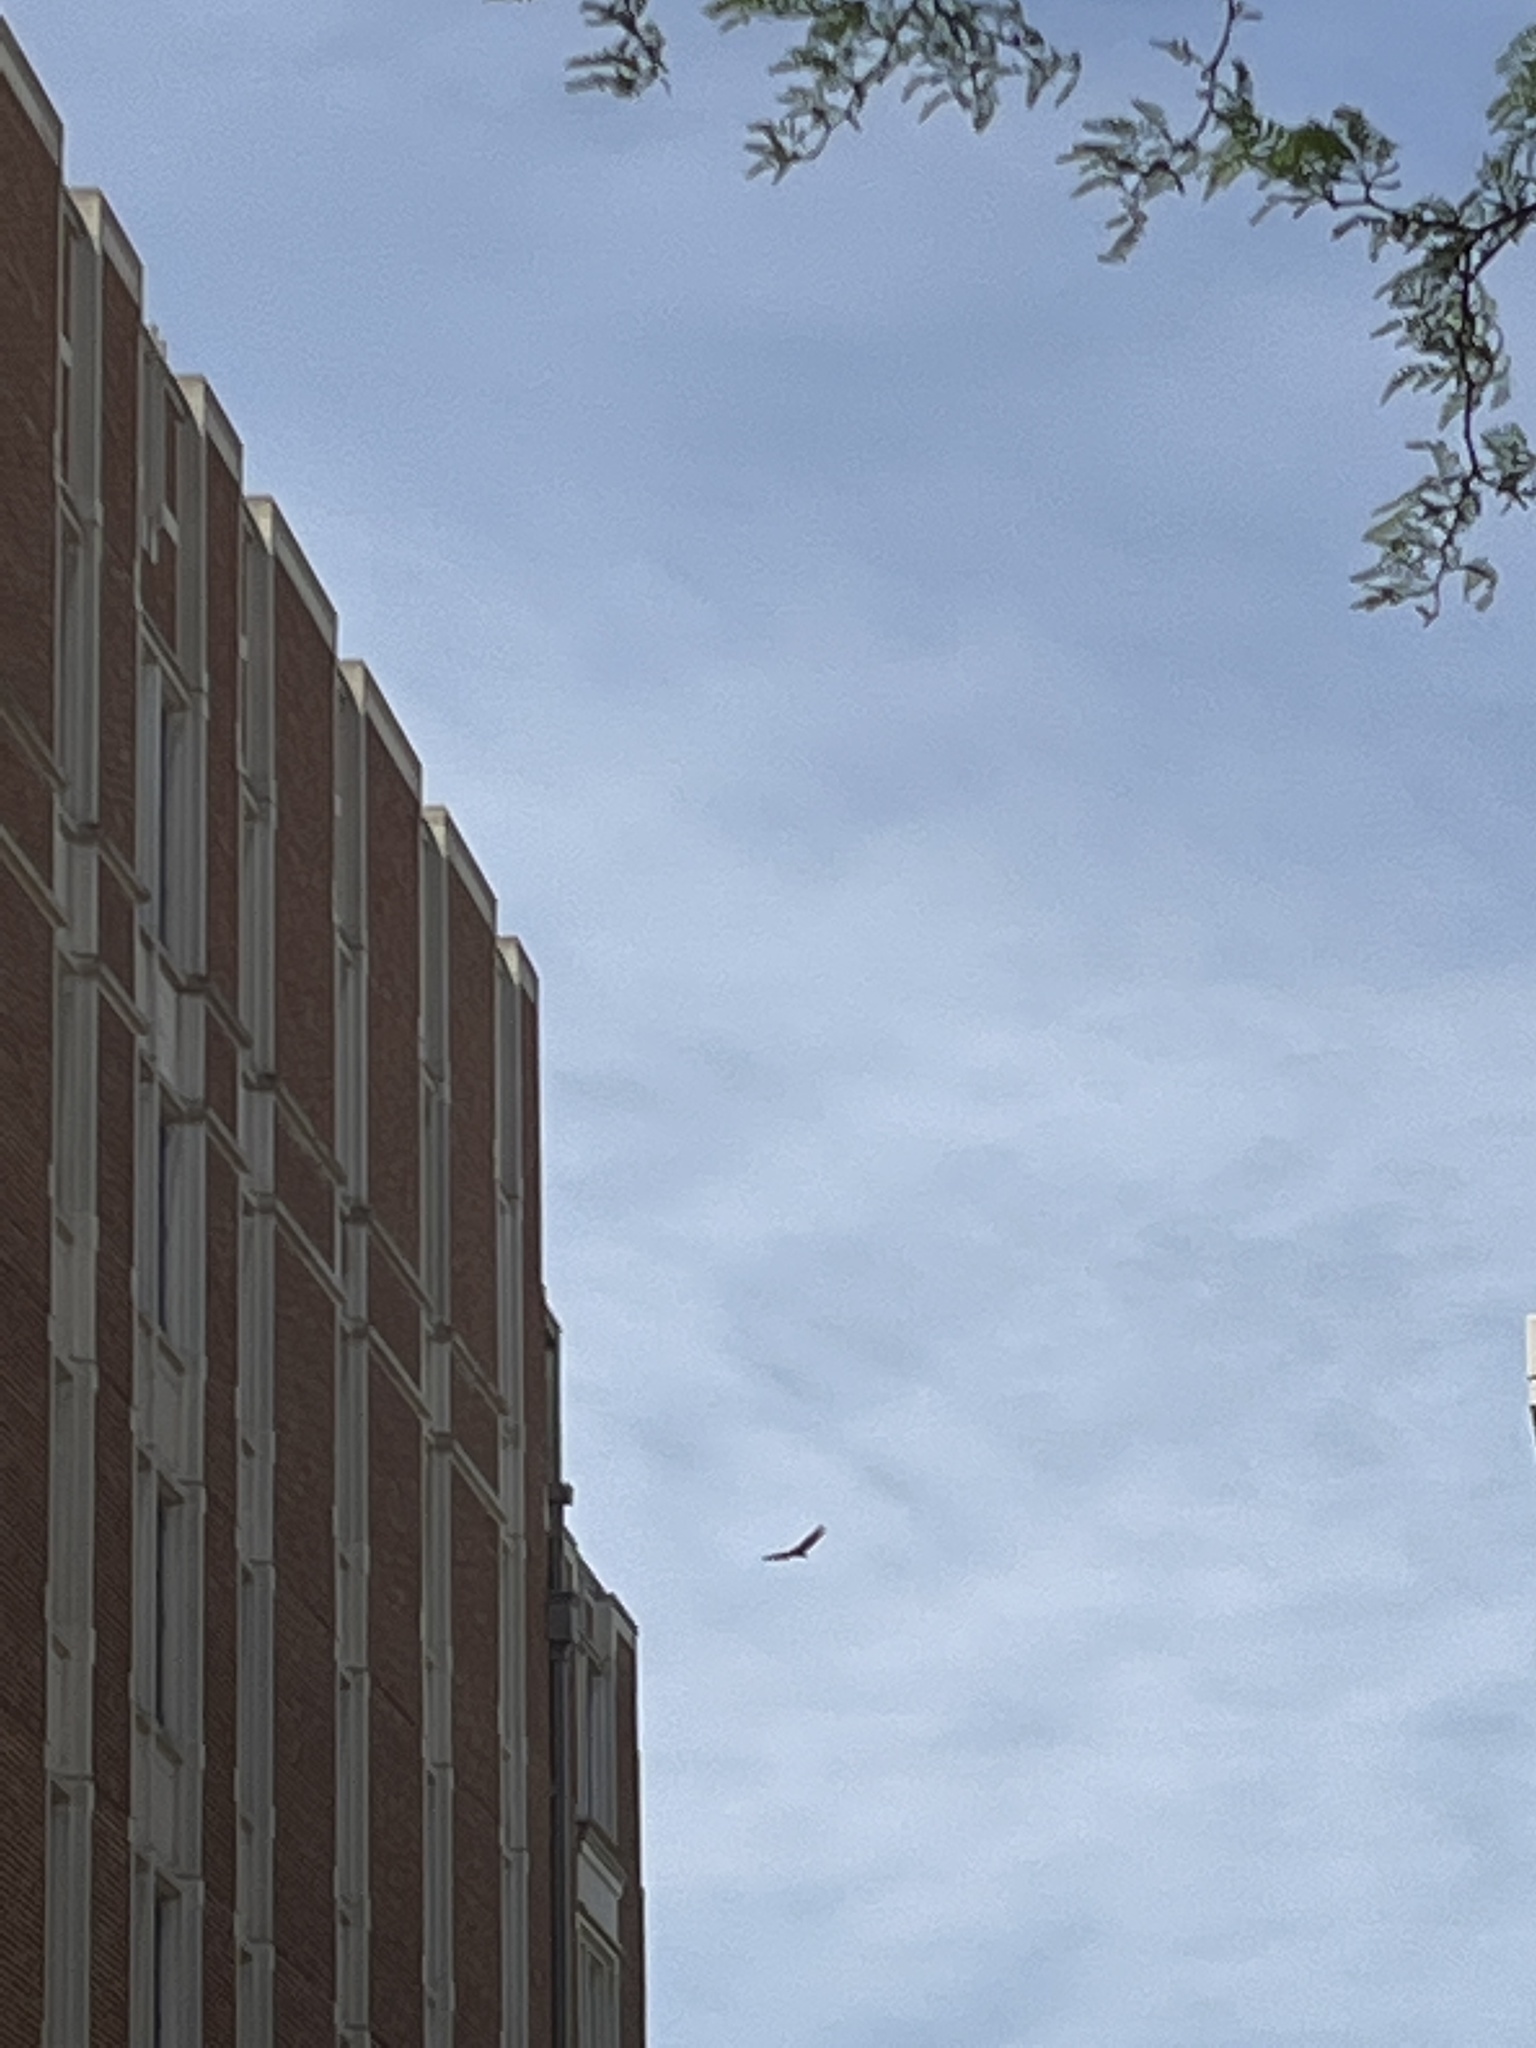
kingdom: Animalia
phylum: Chordata
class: Aves
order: Accipitriformes
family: Cathartidae
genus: Cathartes
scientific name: Cathartes aura
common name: Turkey vulture
